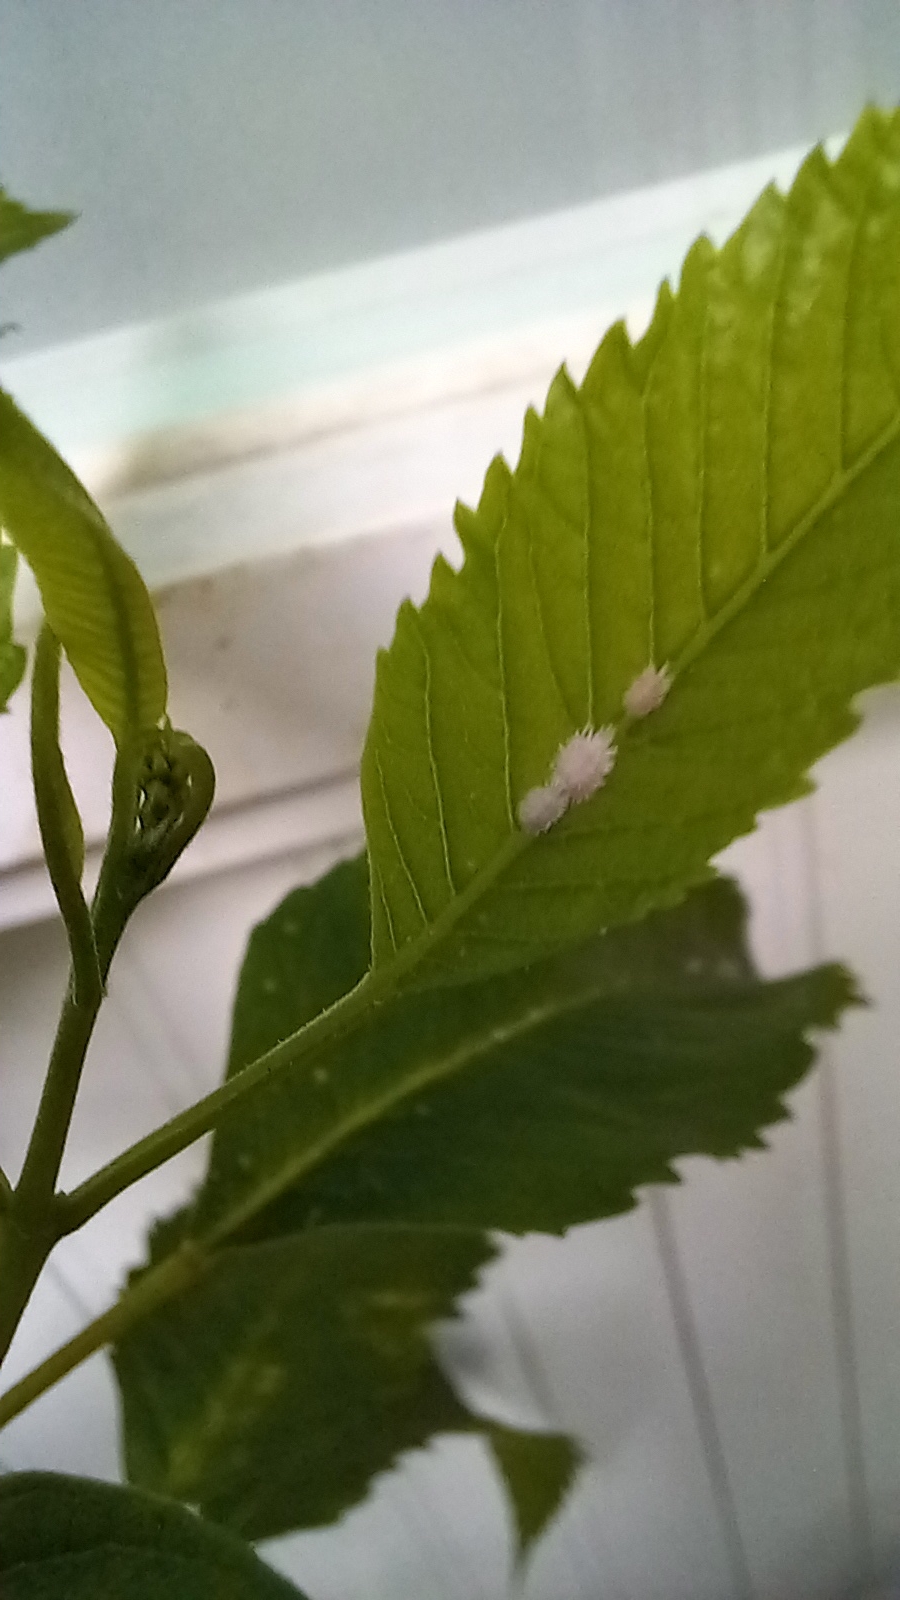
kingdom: Animalia
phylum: Arthropoda
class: Insecta
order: Hemiptera
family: Pseudococcidae
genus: Planococcus
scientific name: Planococcus citri
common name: Citrus mealybug
